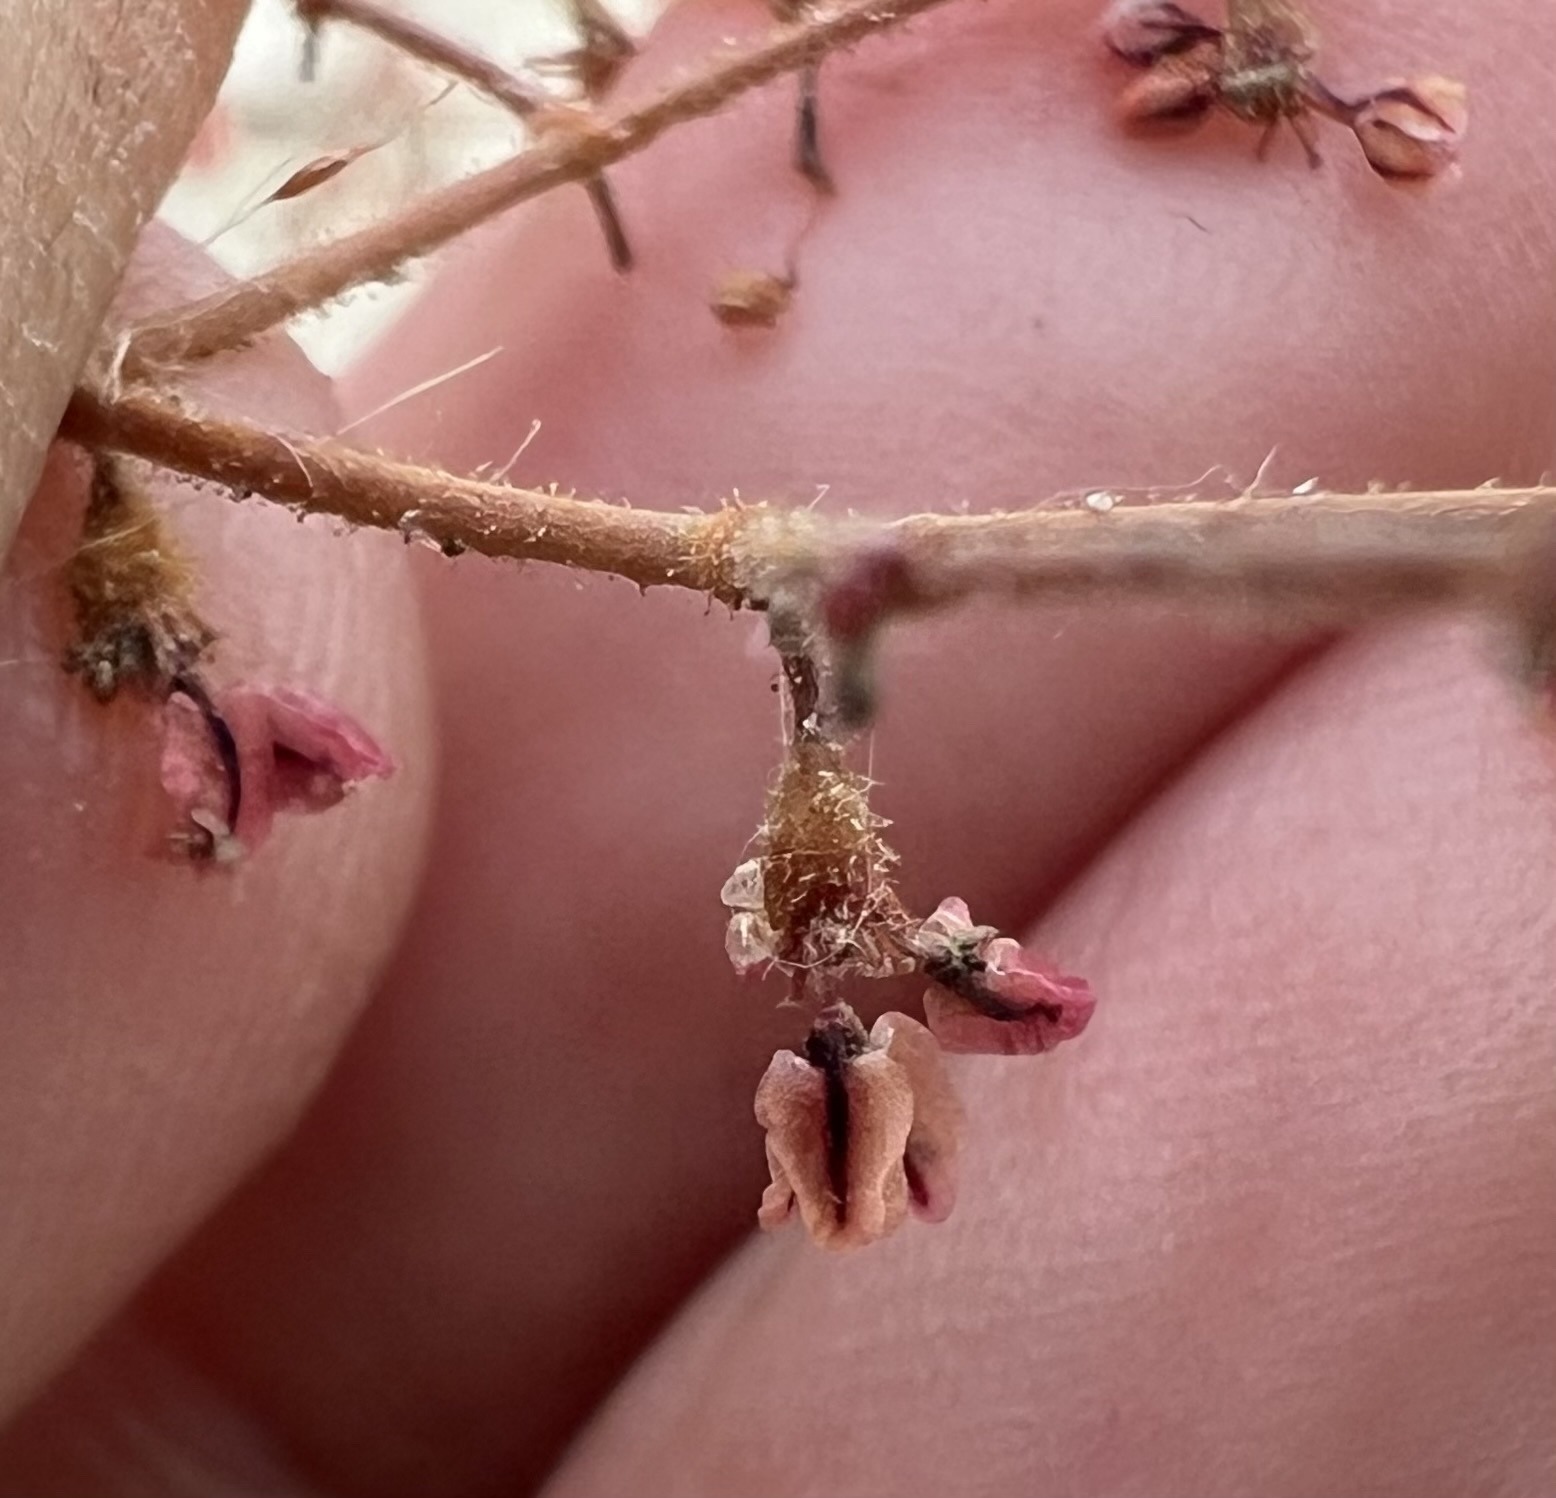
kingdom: Plantae
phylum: Tracheophyta
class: Magnoliopsida
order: Caryophyllales
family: Polygonaceae
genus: Eriogonum
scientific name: Eriogonum brachypodum
